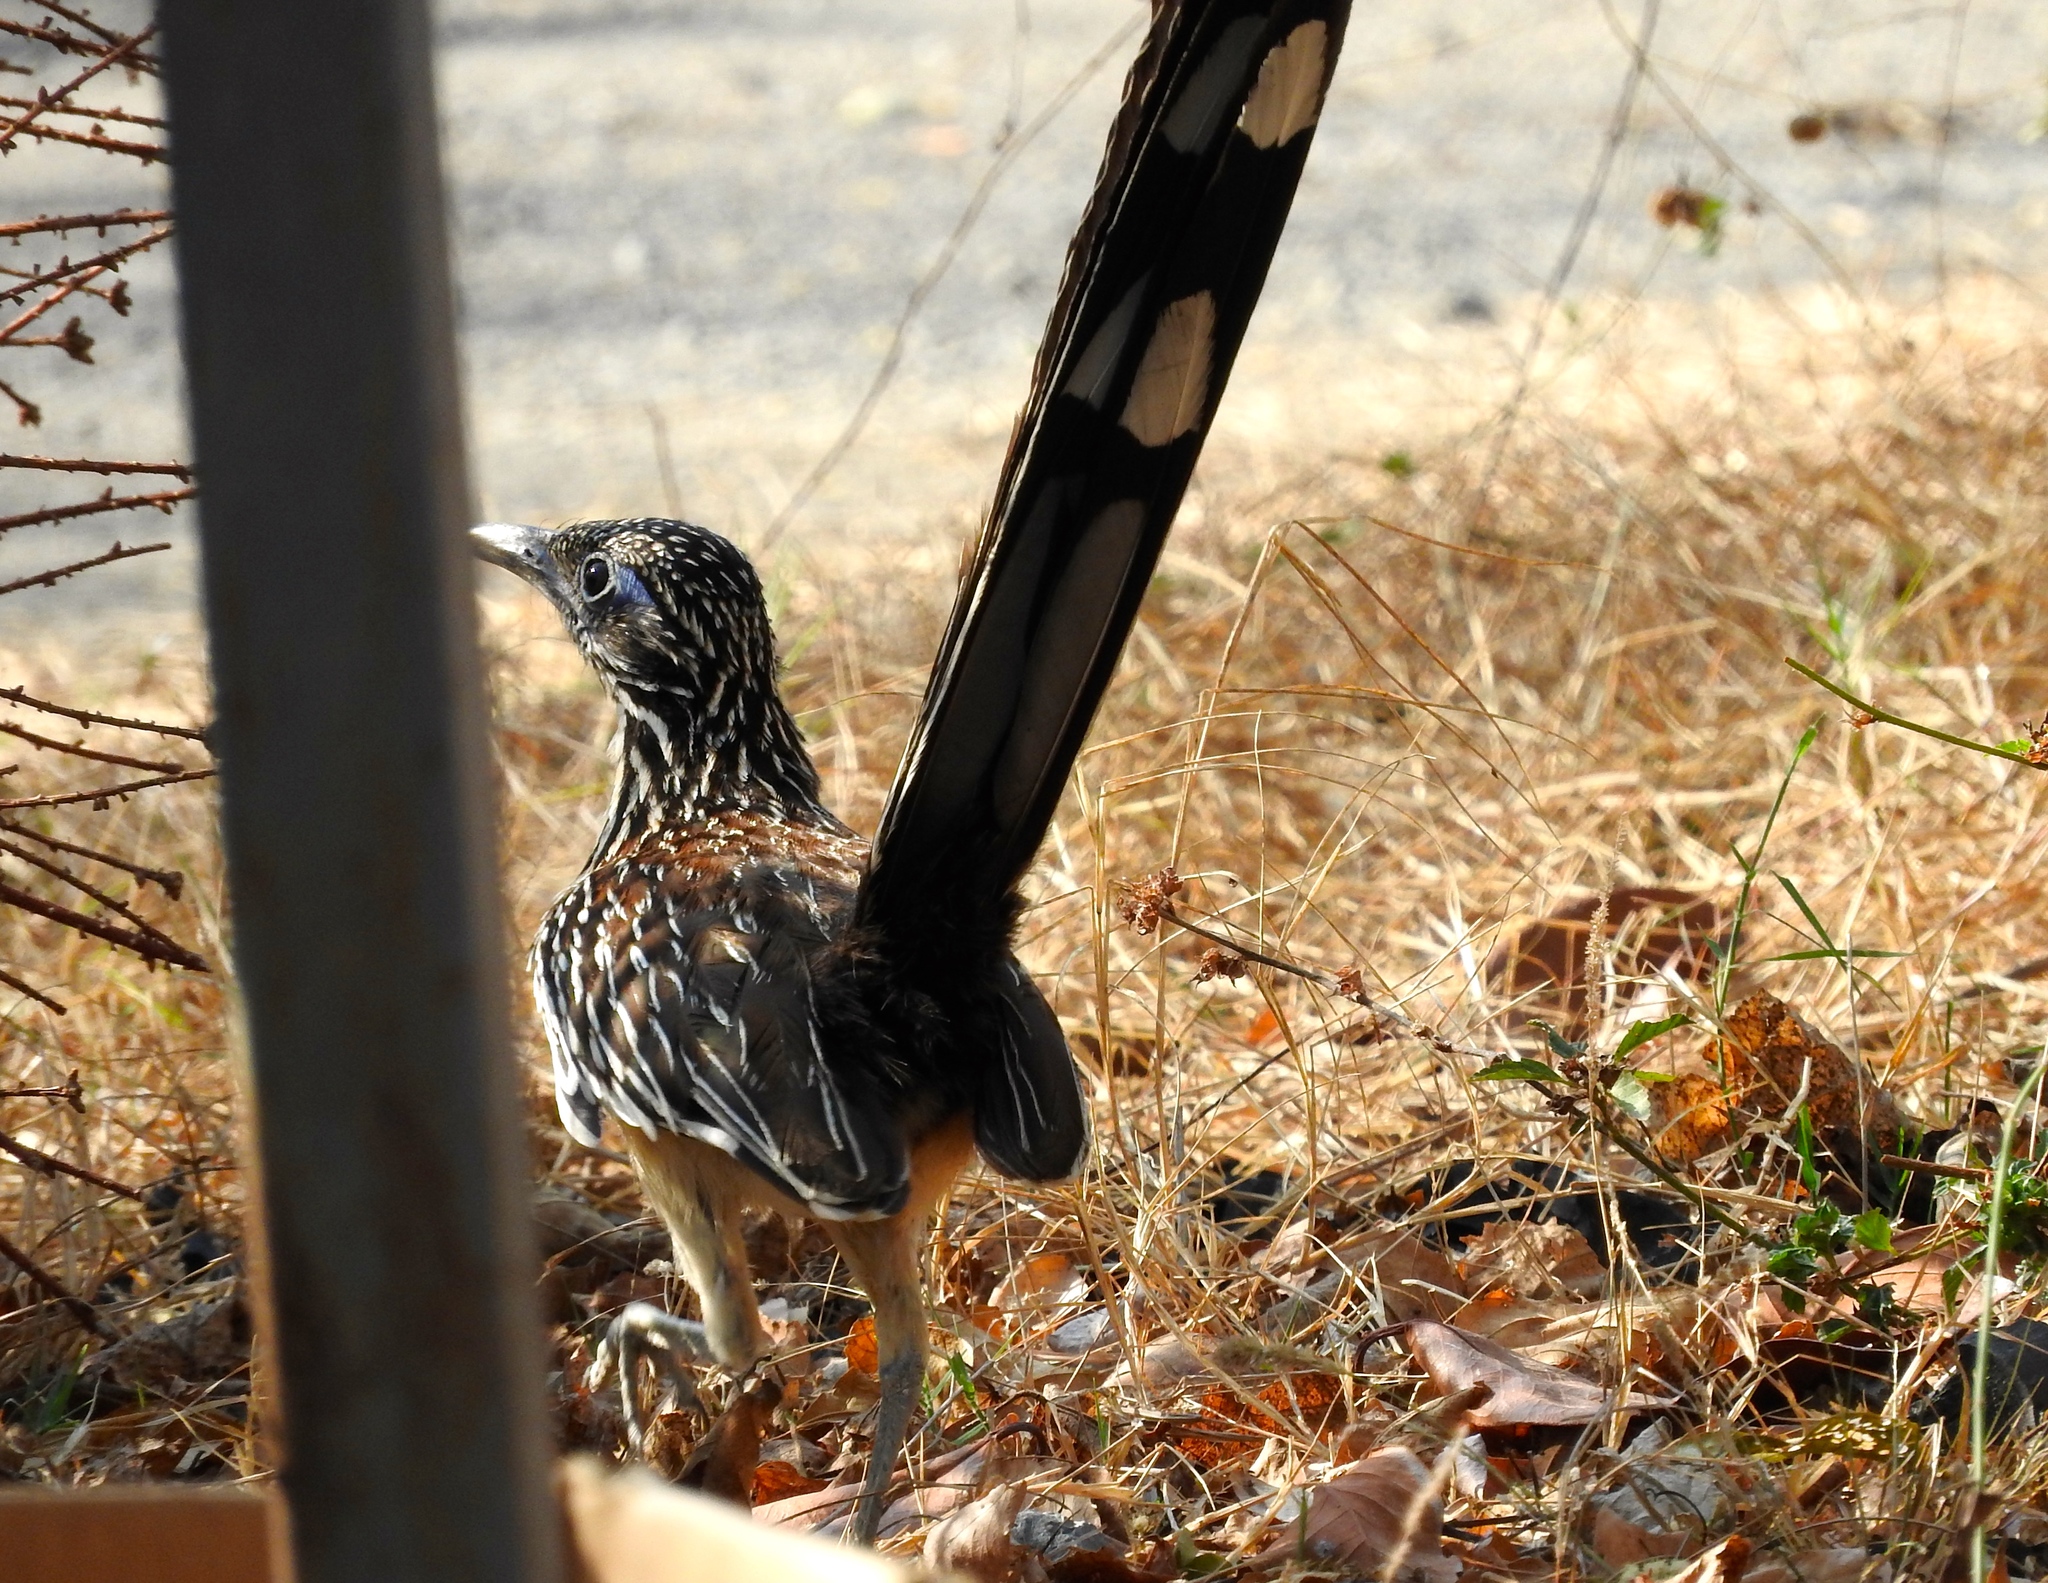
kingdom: Animalia
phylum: Chordata
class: Aves
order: Cuculiformes
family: Cuculidae
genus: Geococcyx
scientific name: Geococcyx velox
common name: Lesser roadrunner
